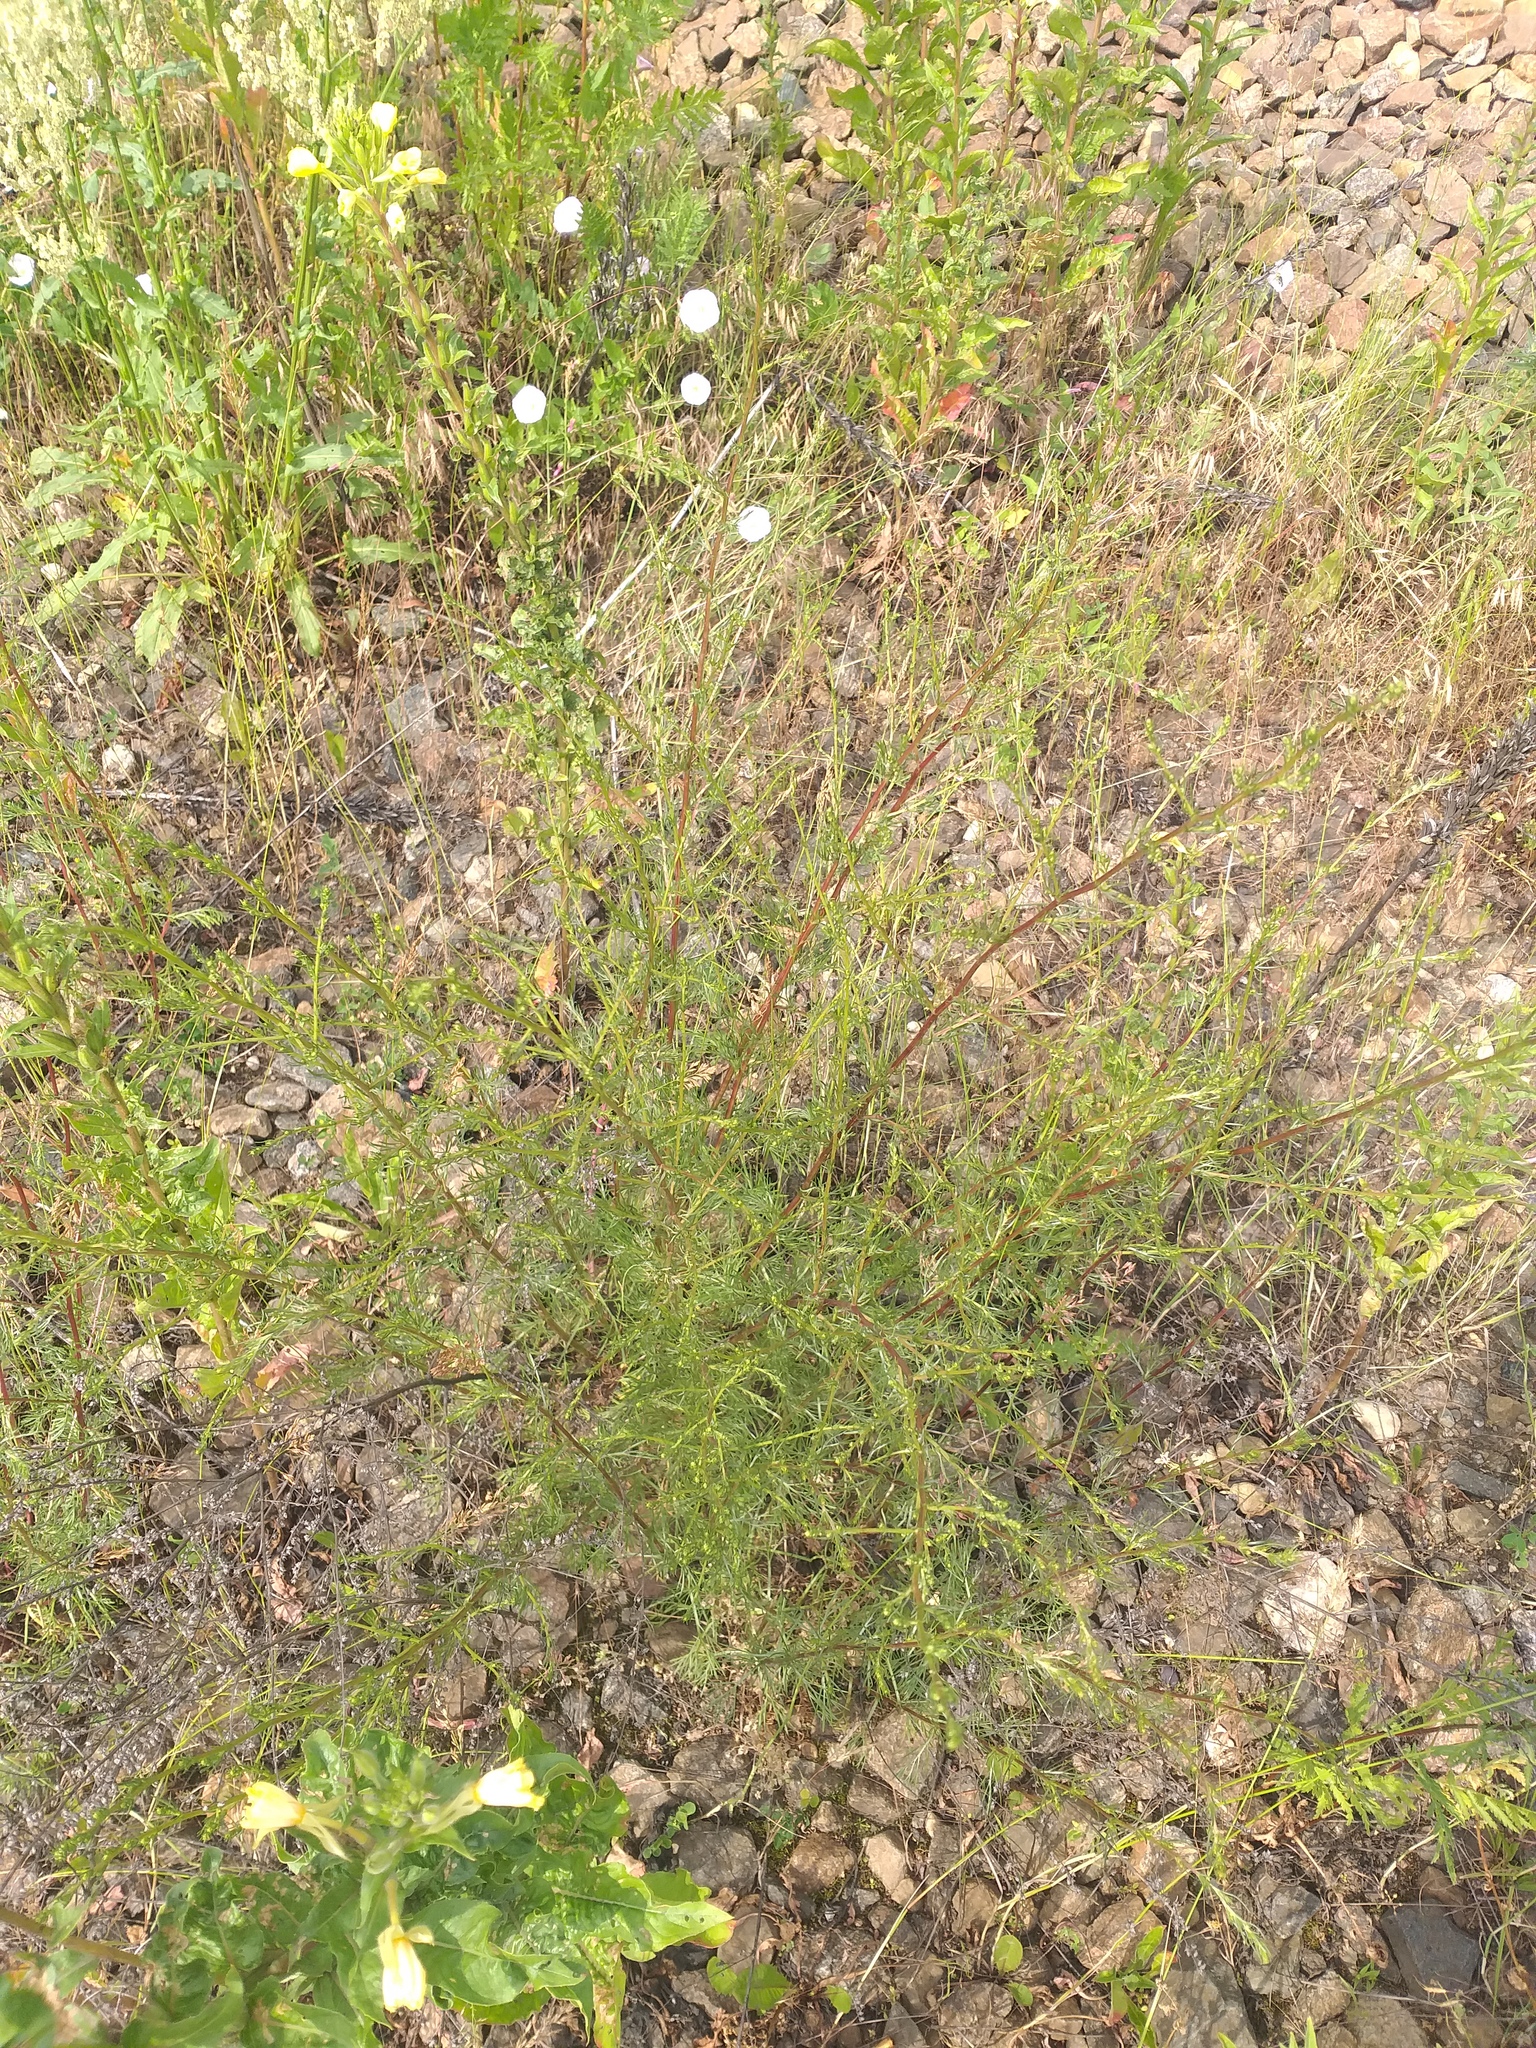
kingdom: Plantae
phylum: Tracheophyta
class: Magnoliopsida
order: Asterales
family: Asteraceae
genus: Artemisia
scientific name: Artemisia campestris
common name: Field wormwood
